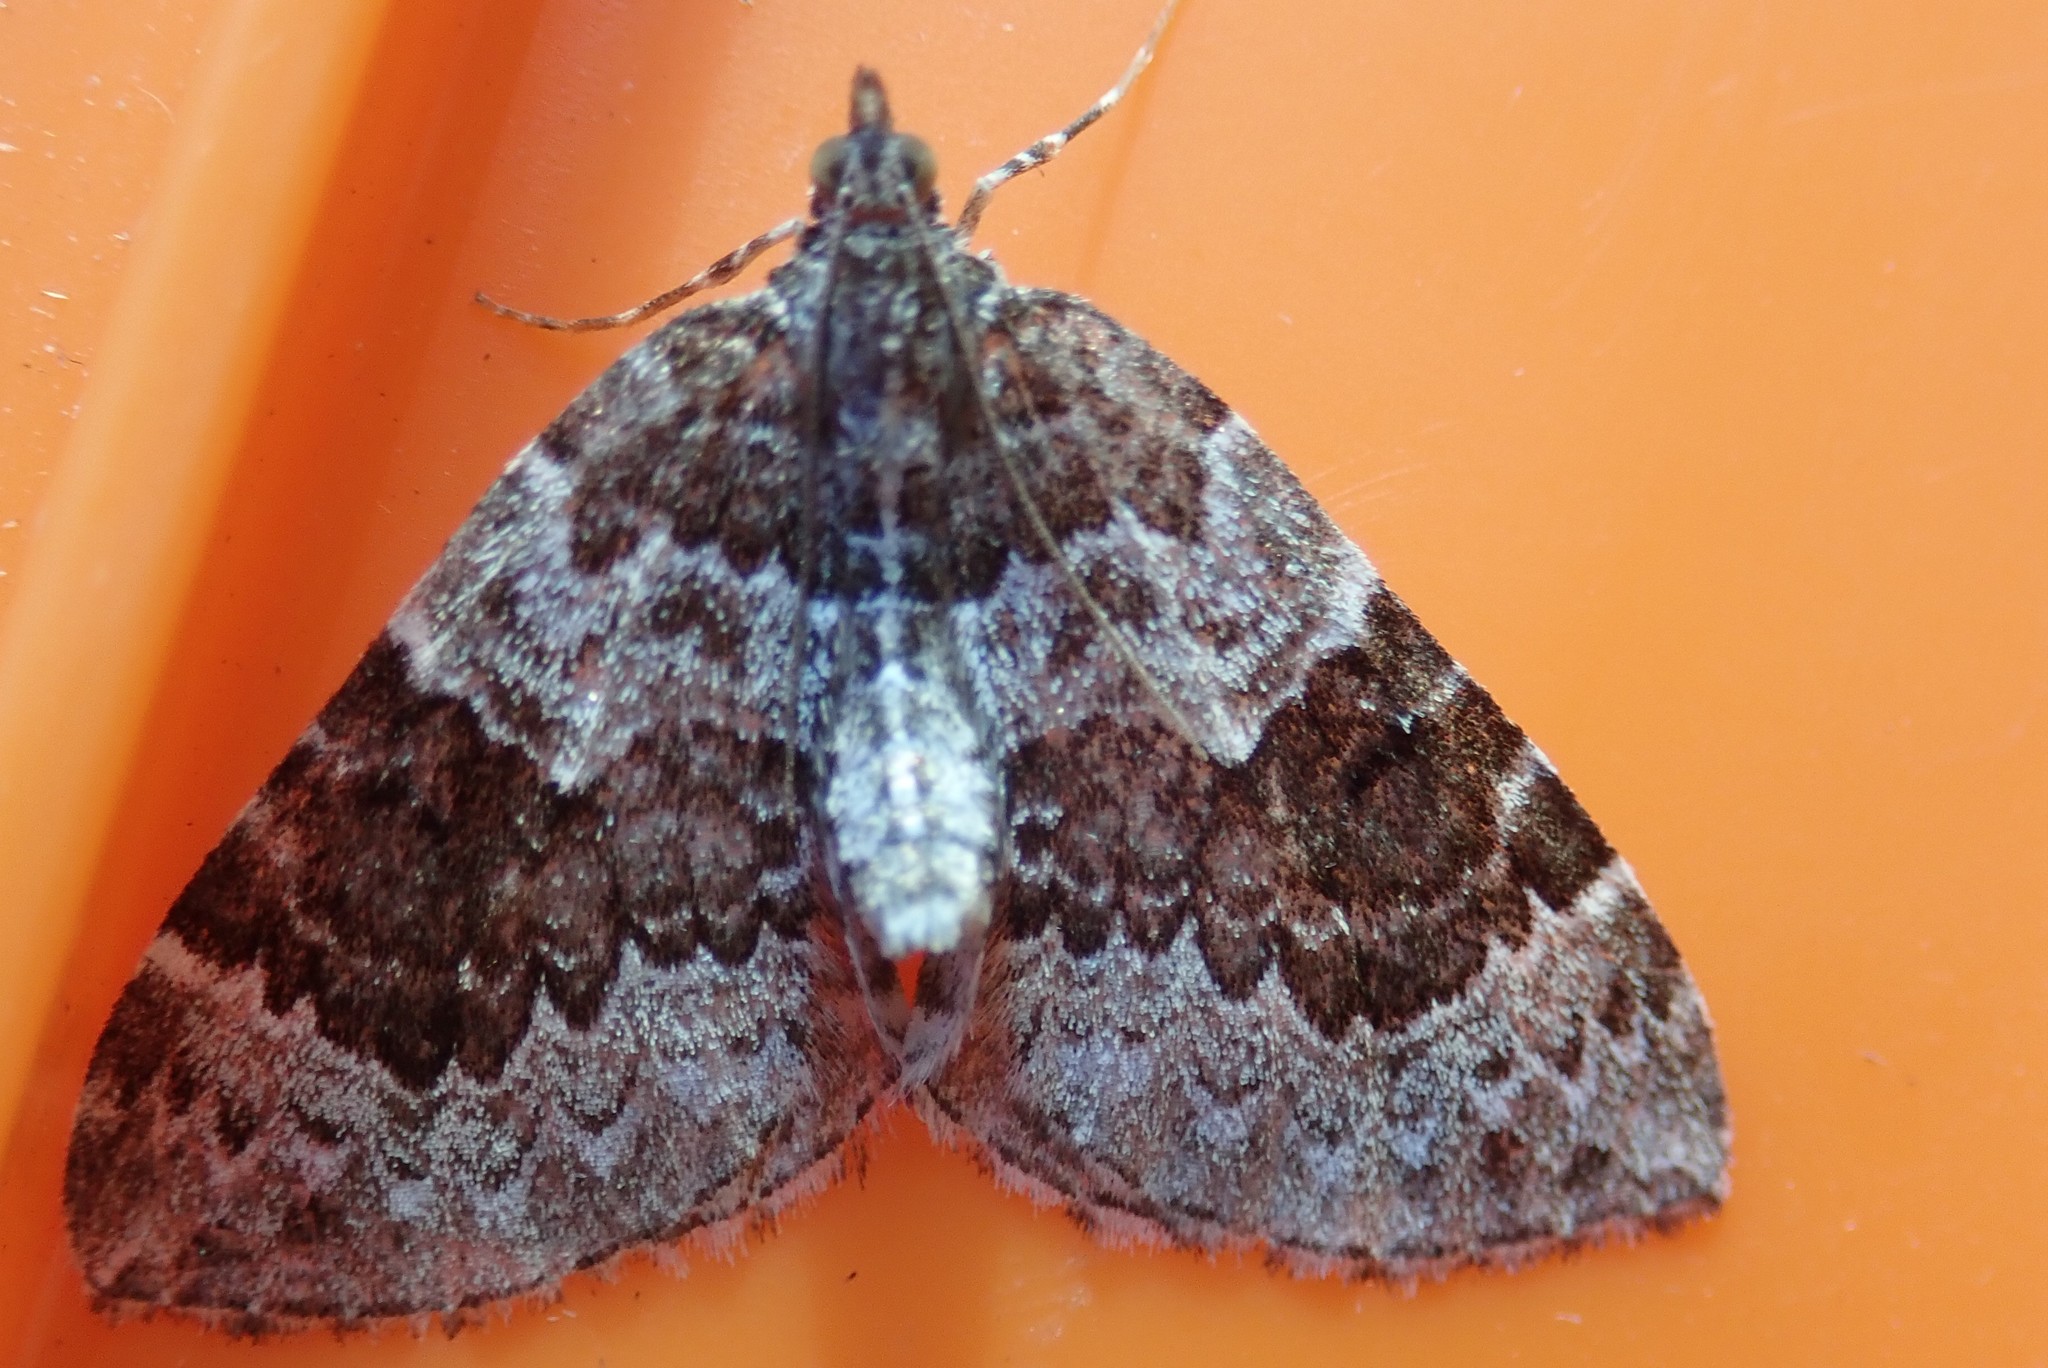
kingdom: Animalia
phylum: Arthropoda
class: Insecta
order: Lepidoptera
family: Geometridae
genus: Eulithis
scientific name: Eulithis explanata
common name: White eulithis
